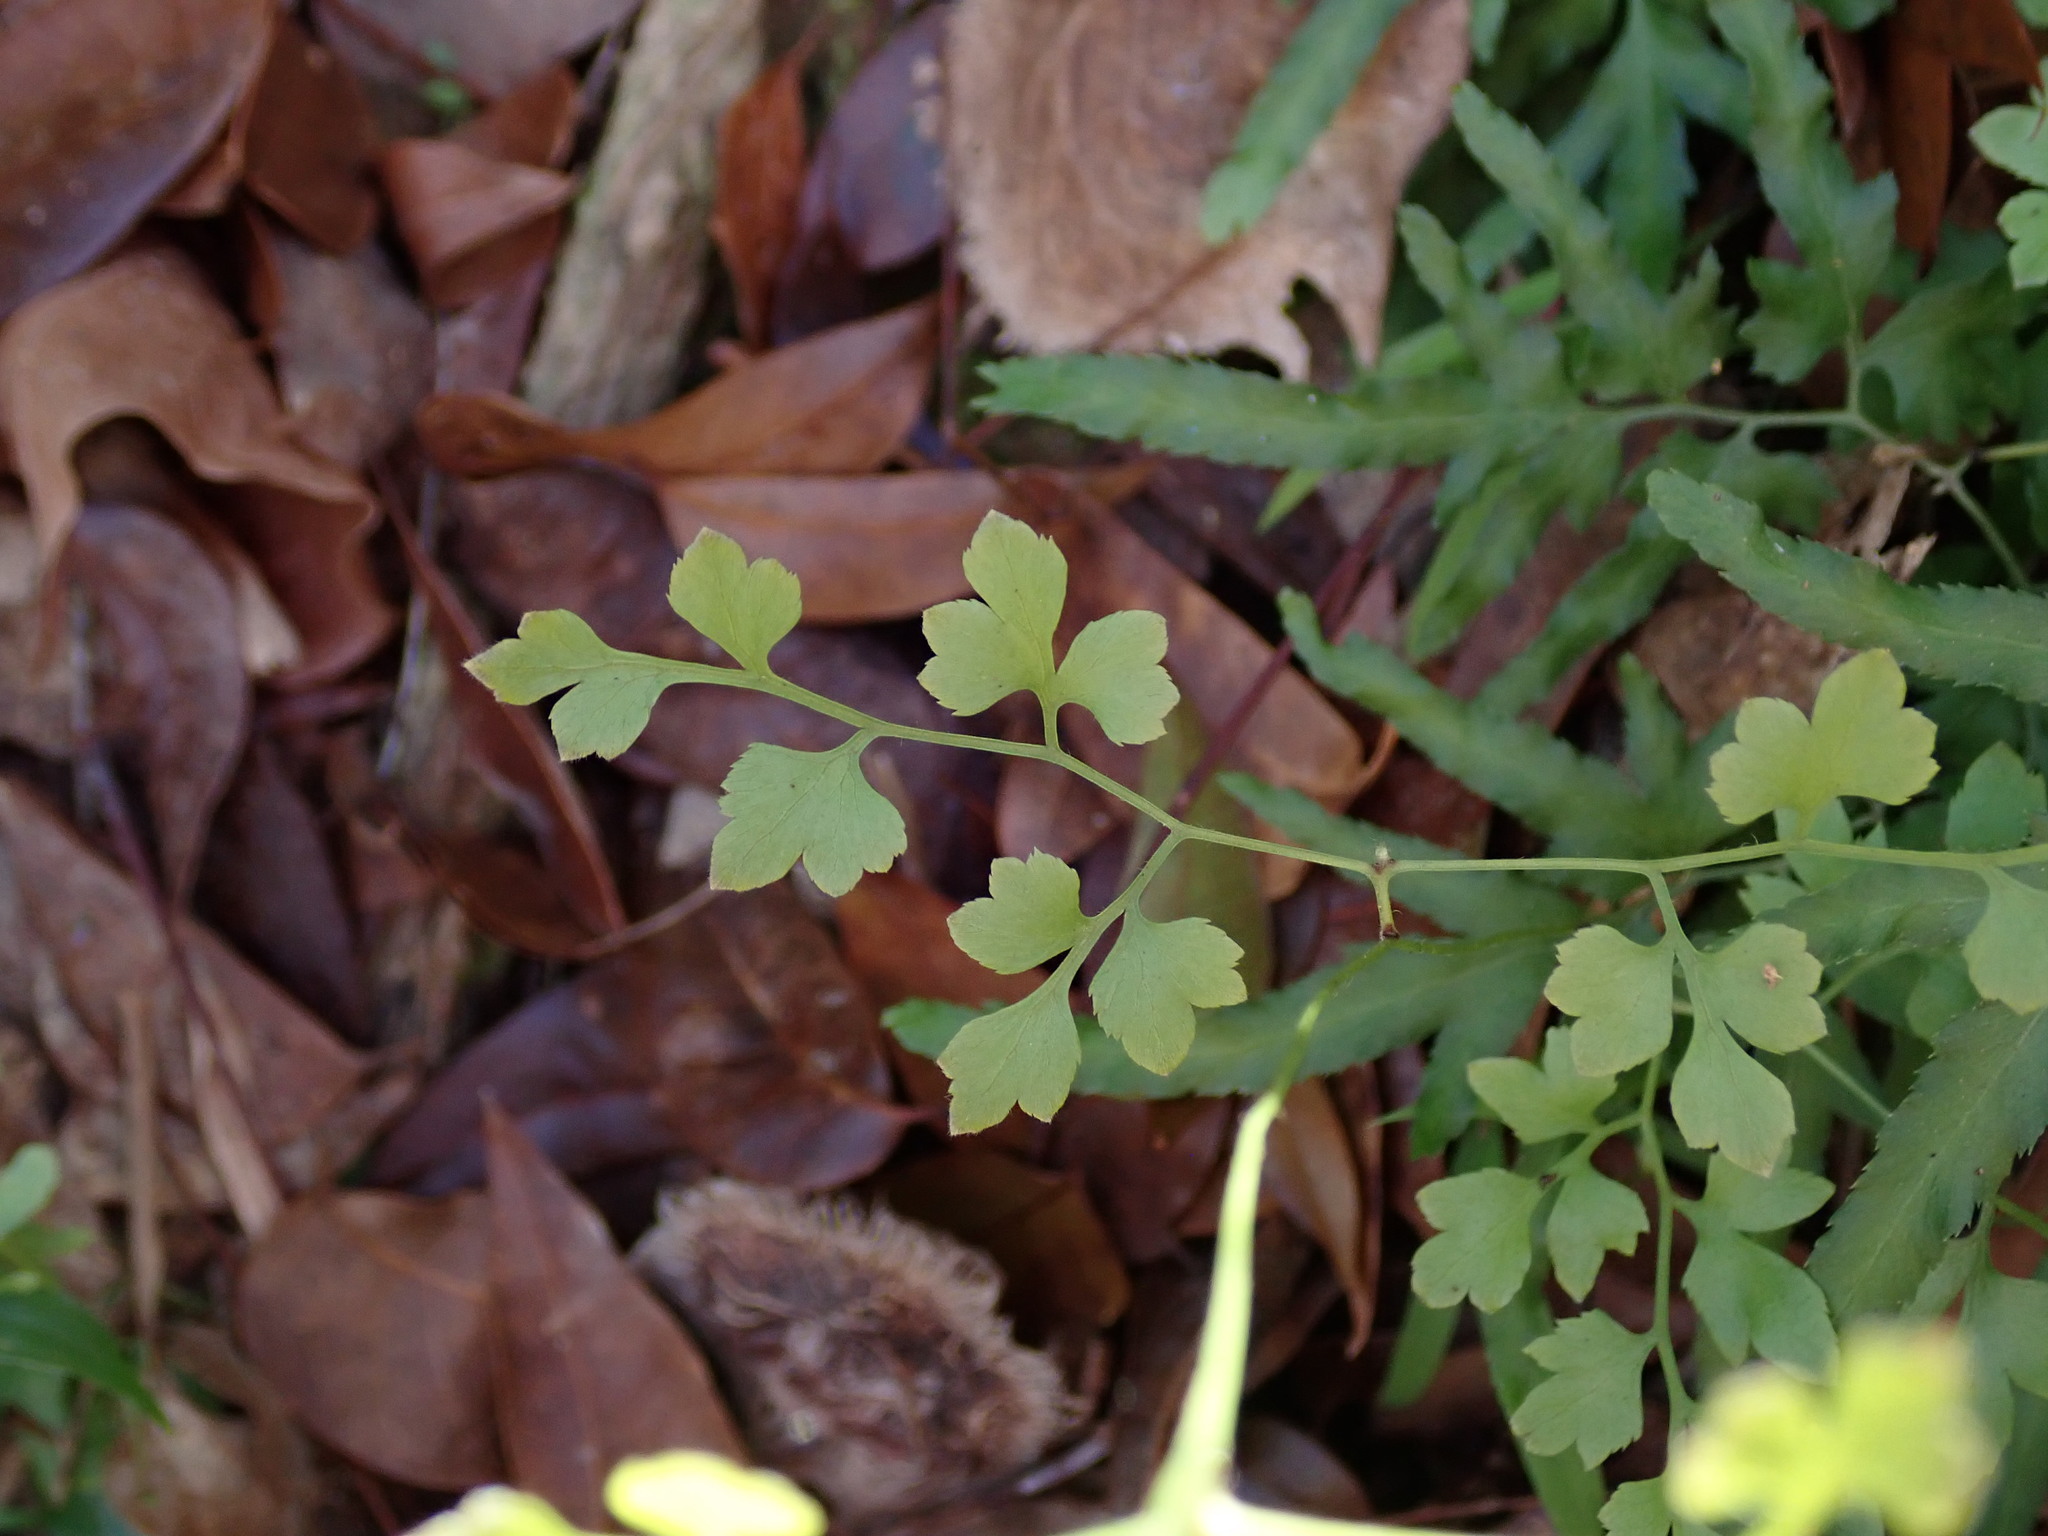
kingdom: Plantae
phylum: Tracheophyta
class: Polypodiopsida
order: Schizaeales
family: Lygodiaceae
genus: Lygodium
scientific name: Lygodium japonicum
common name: Japanese climbing fern
